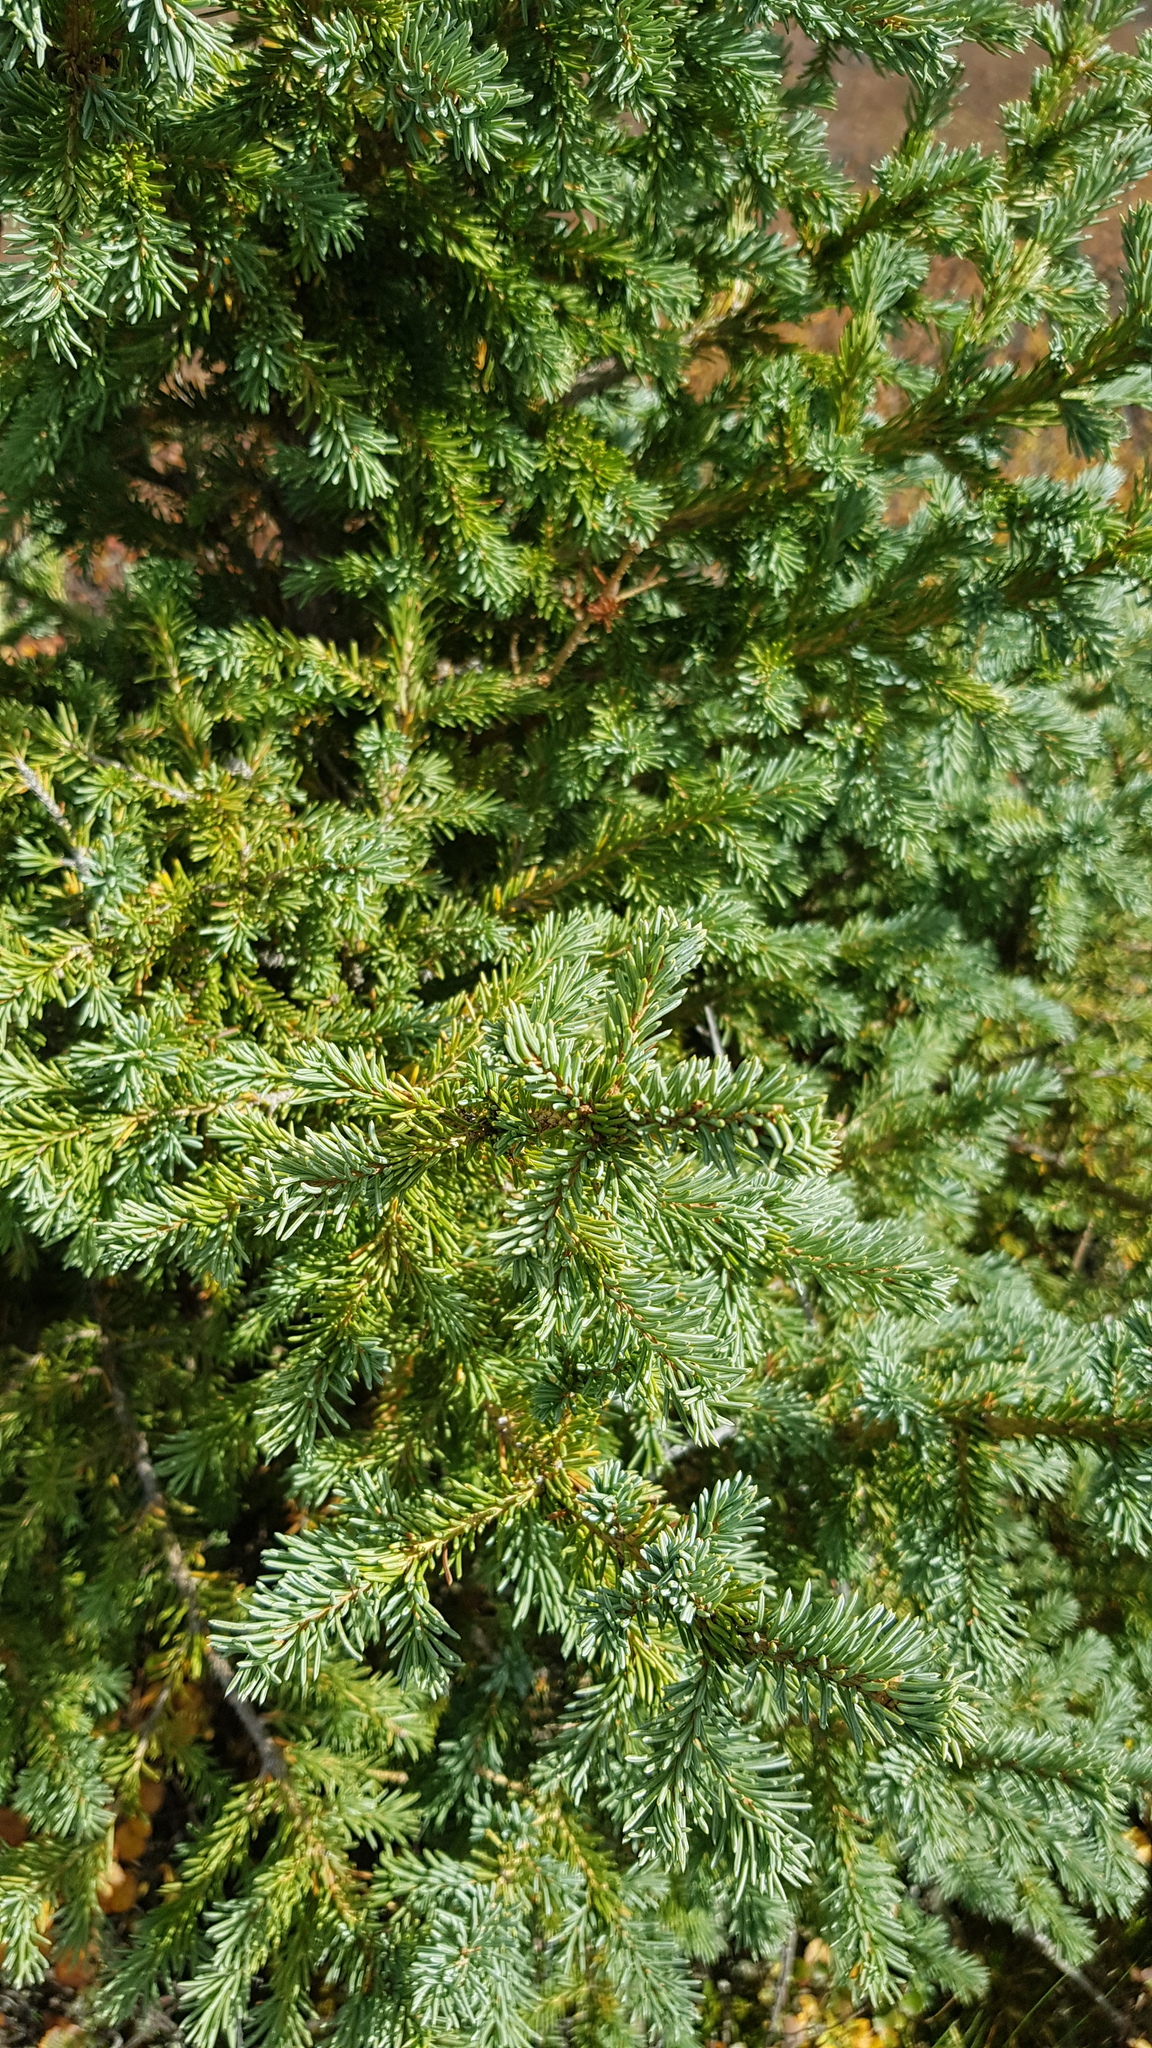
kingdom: Plantae
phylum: Tracheophyta
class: Pinopsida
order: Pinales
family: Pinaceae
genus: Picea
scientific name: Picea obovata
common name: Siberian spruce
